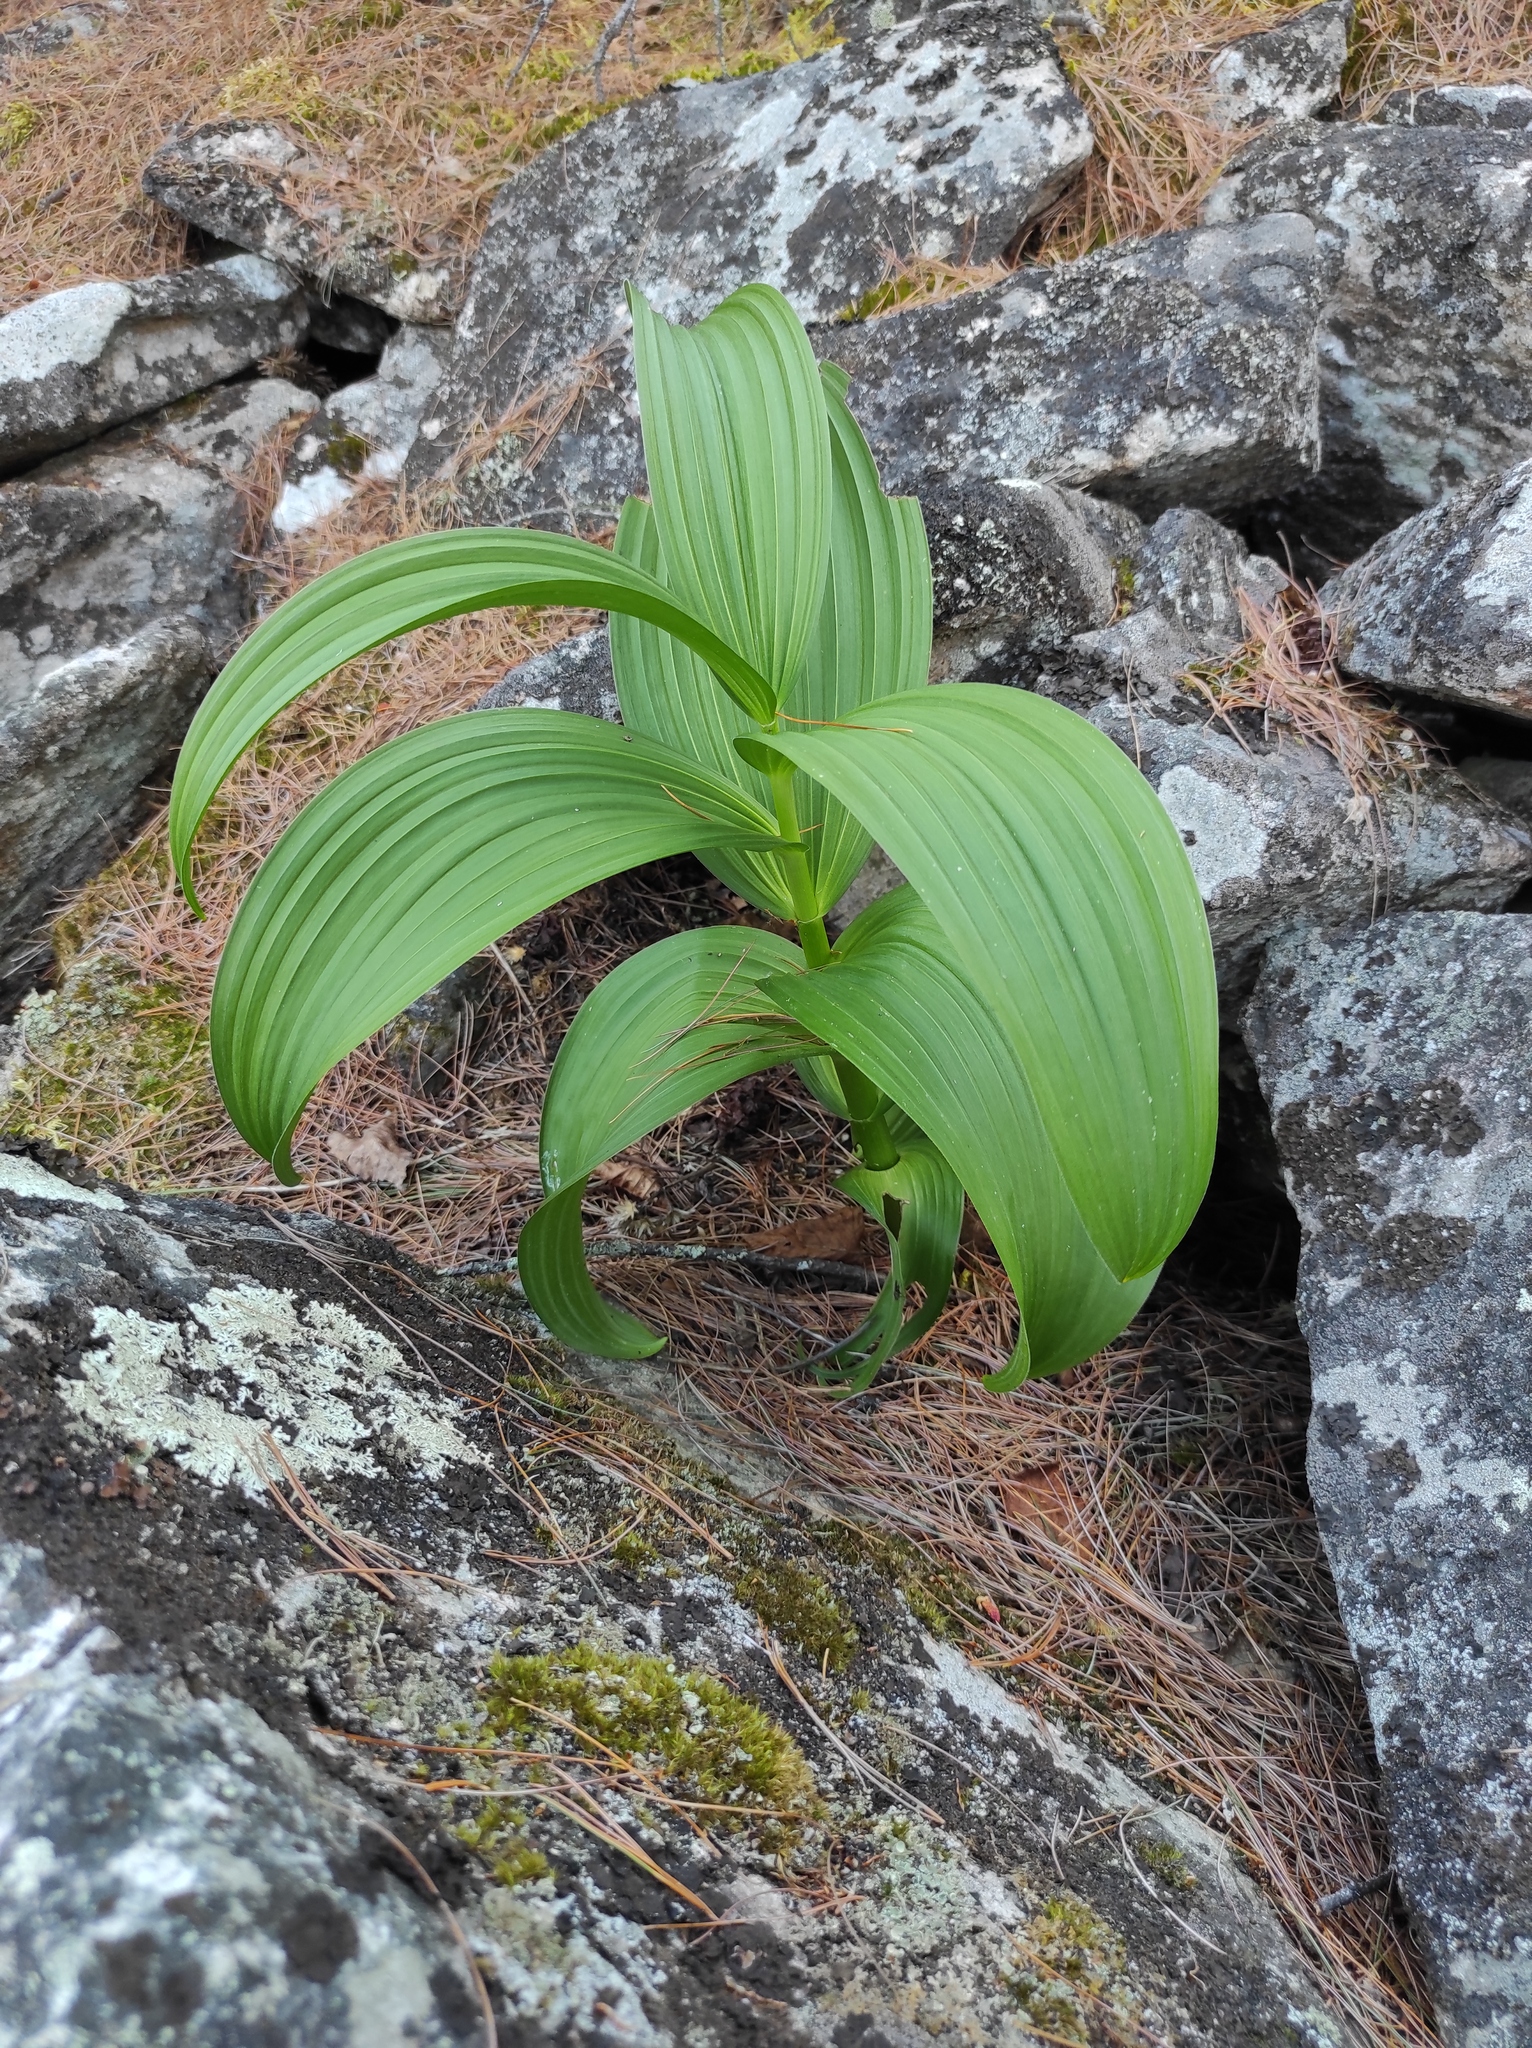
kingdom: Plantae
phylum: Tracheophyta
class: Liliopsida
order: Liliales
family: Melanthiaceae
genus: Veratrum
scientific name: Veratrum lobelianum
